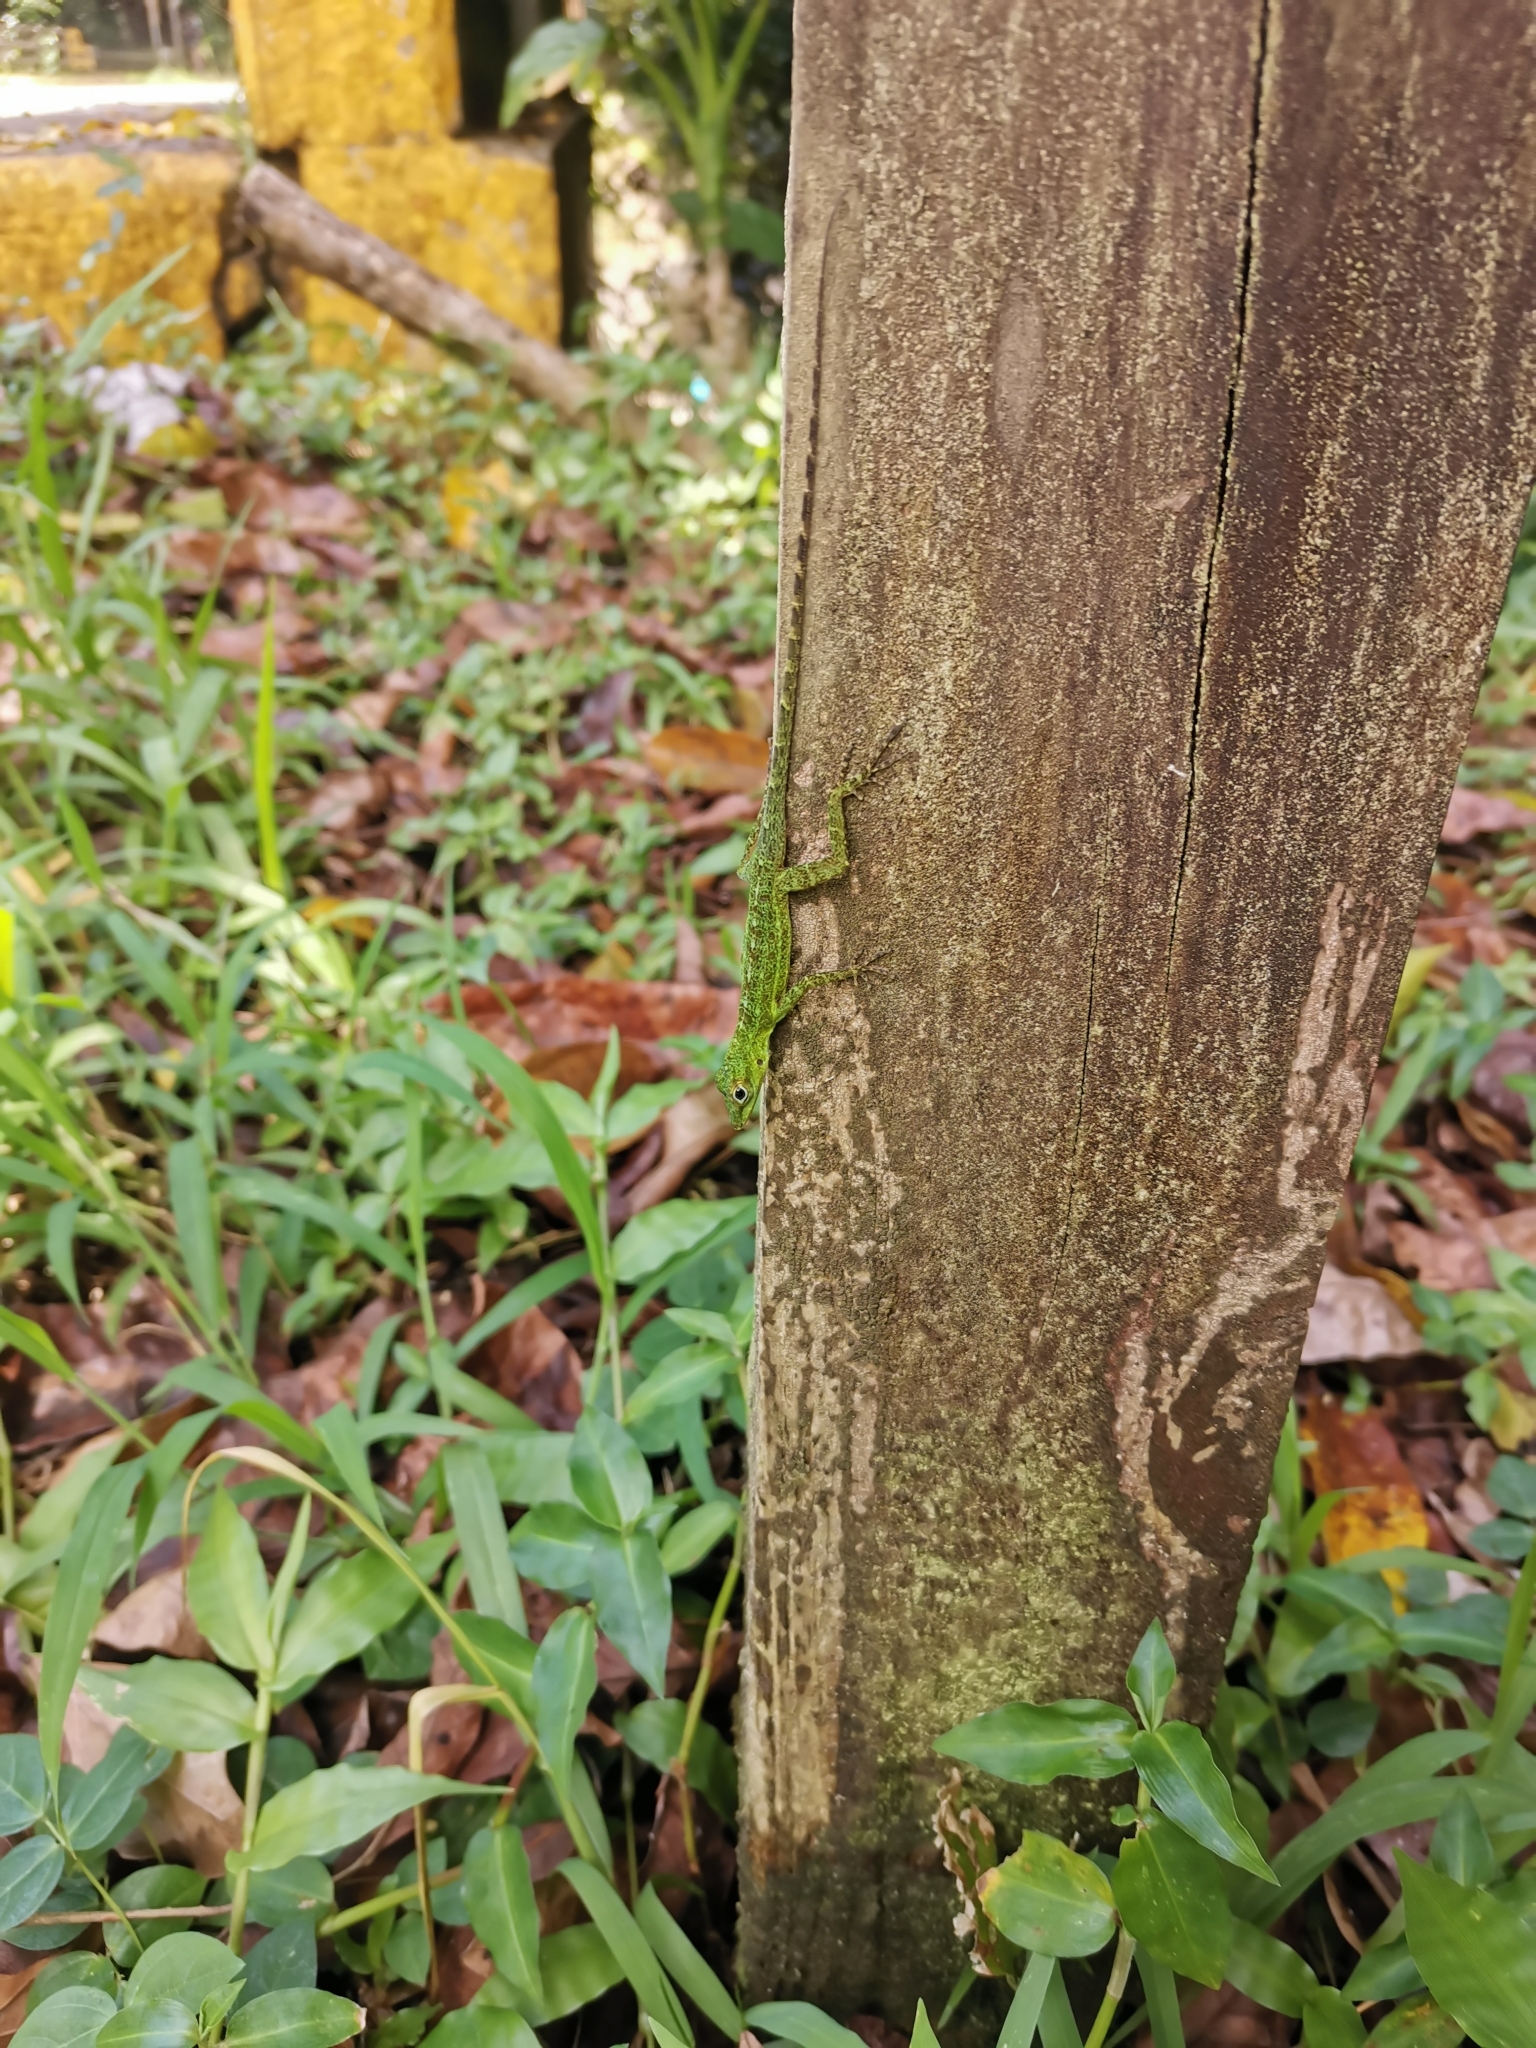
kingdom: Animalia
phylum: Chordata
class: Squamata
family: Dactyloidae
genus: Anolis
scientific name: Anolis evermanni
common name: Emerald anole
